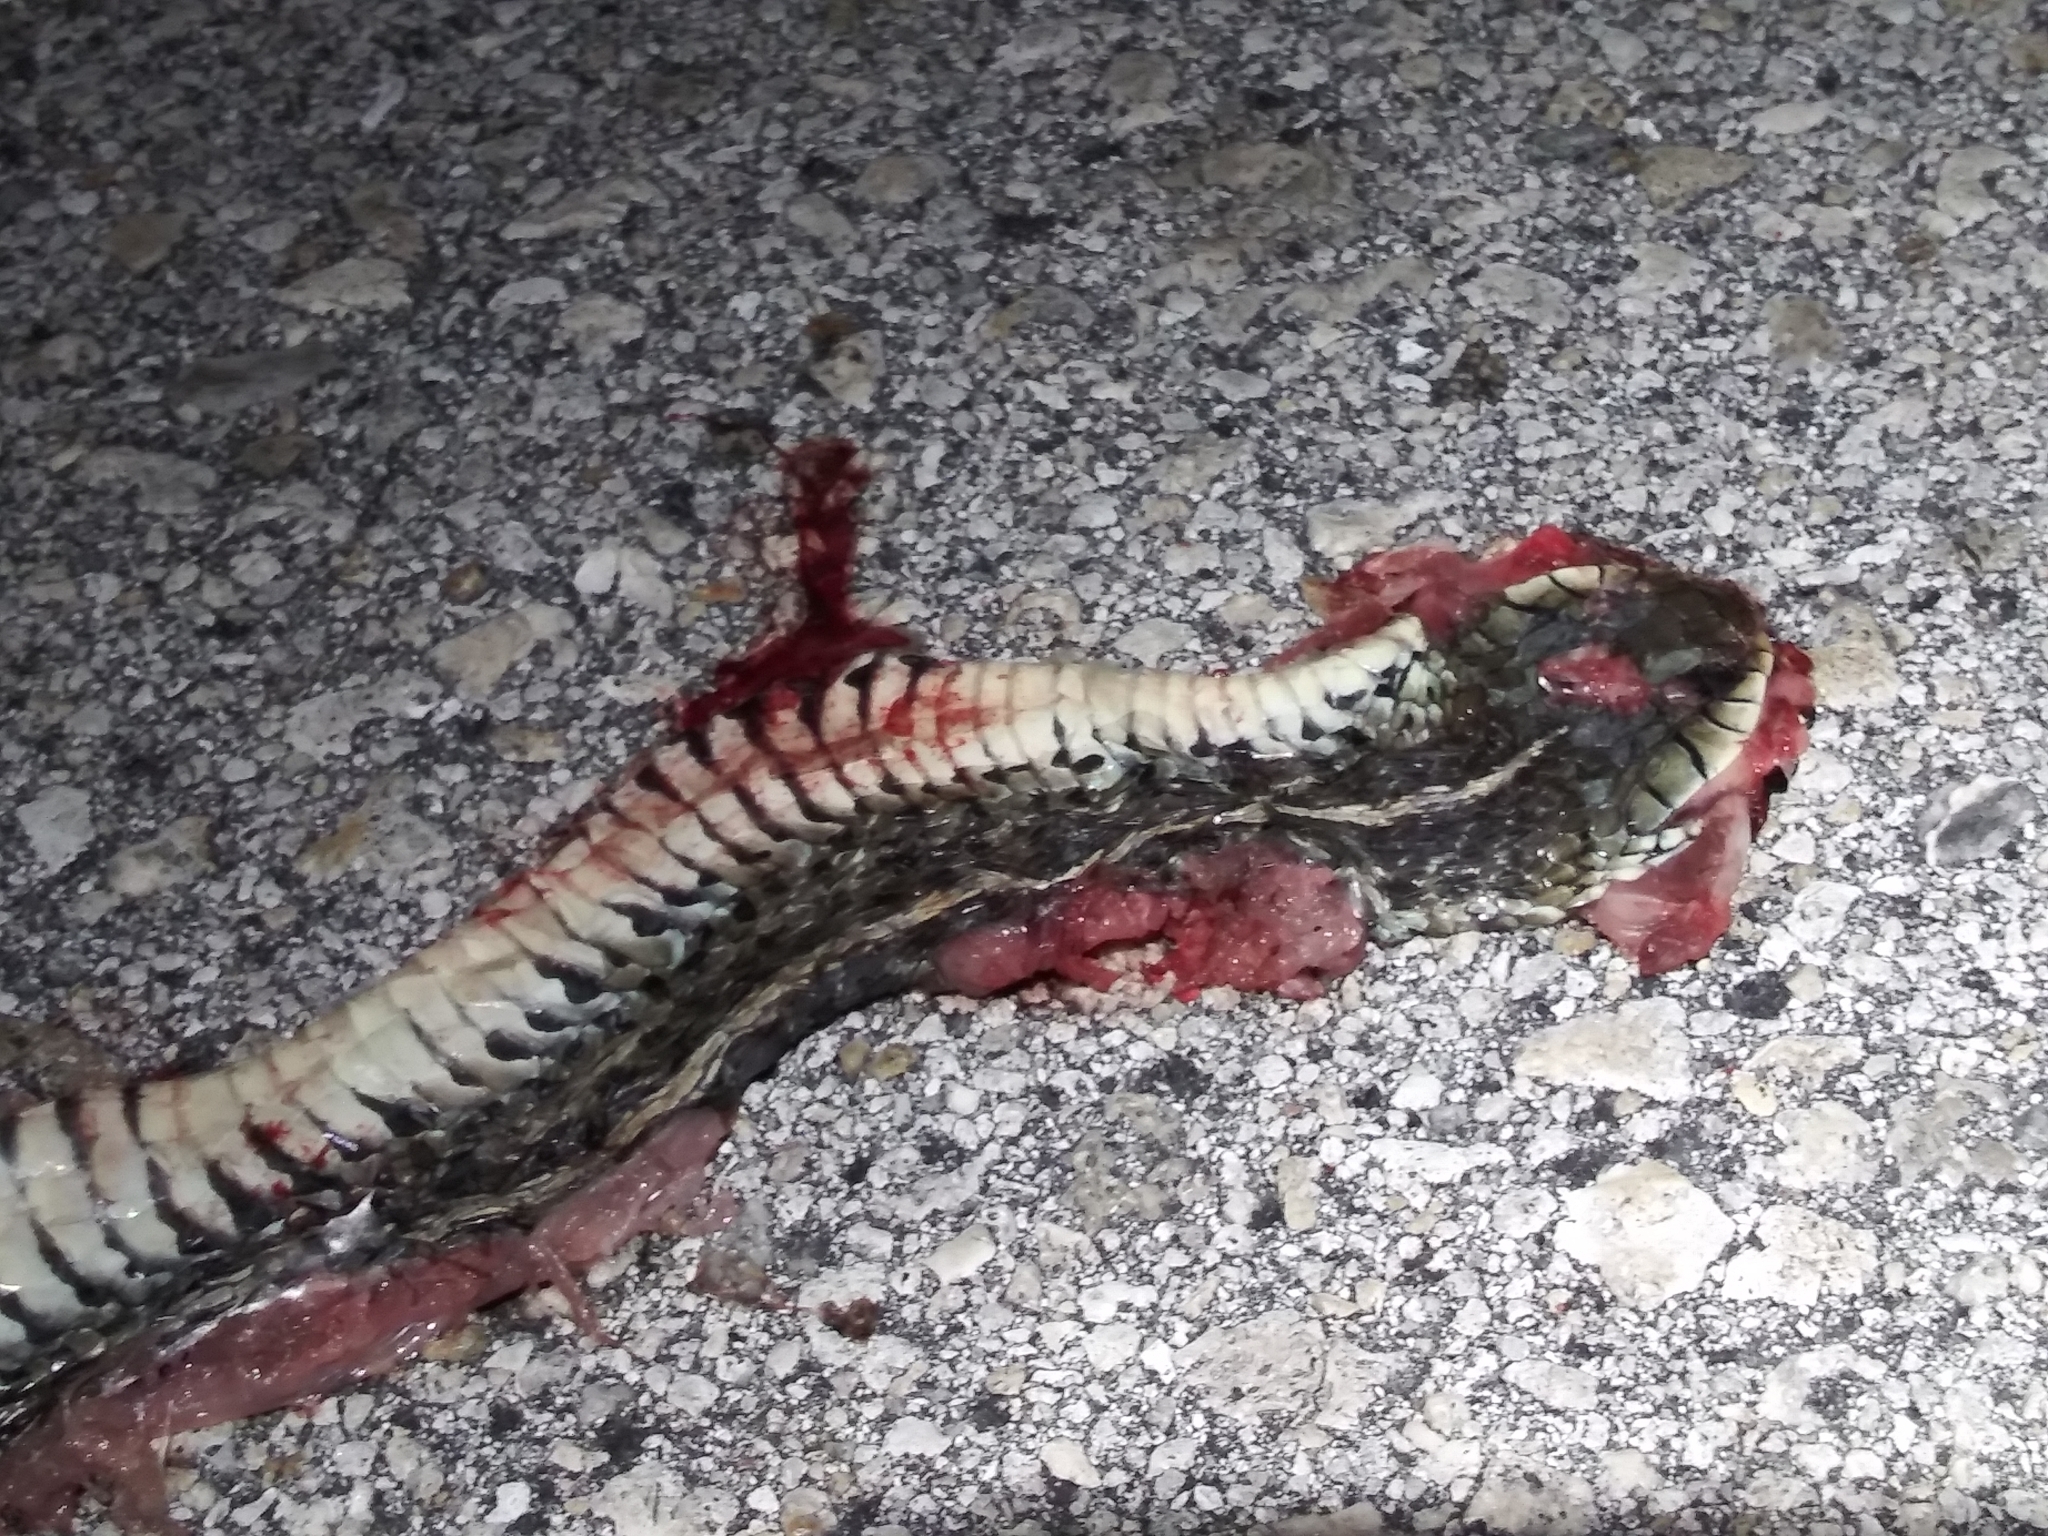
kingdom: Animalia
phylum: Chordata
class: Squamata
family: Colubridae
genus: Thamnophis
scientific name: Thamnophis sirtalis
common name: Common garter snake
